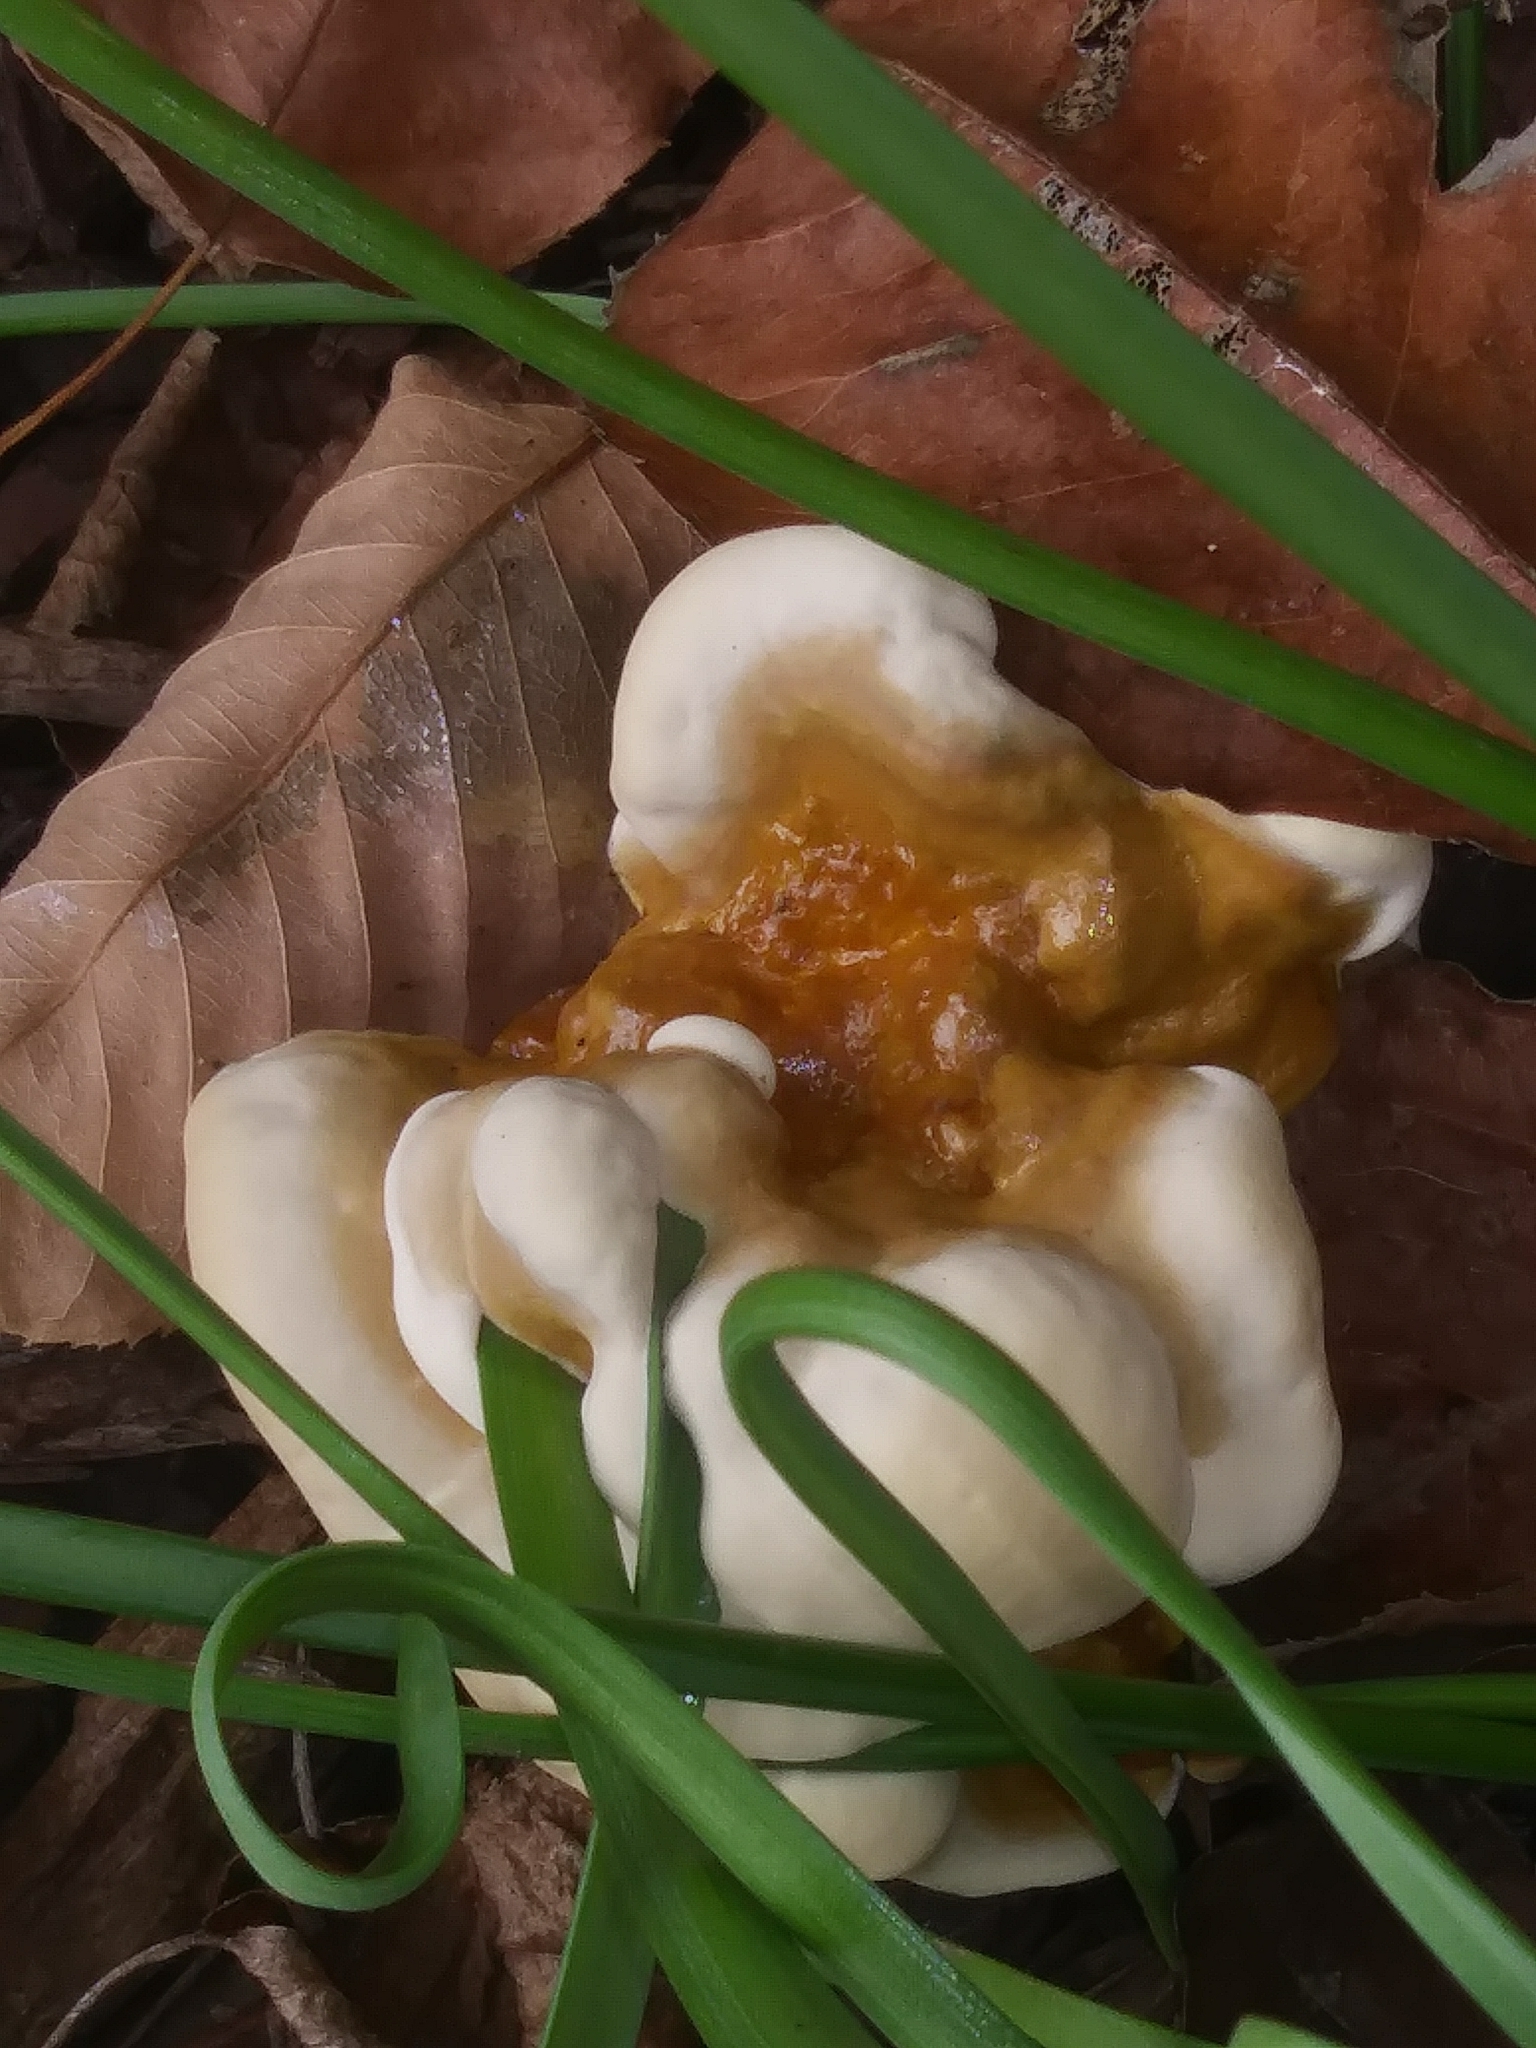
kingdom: Fungi
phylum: Basidiomycota
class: Agaricomycetes
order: Polyporales
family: Polyporaceae
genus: Ganoderma
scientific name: Ganoderma resinaceum
